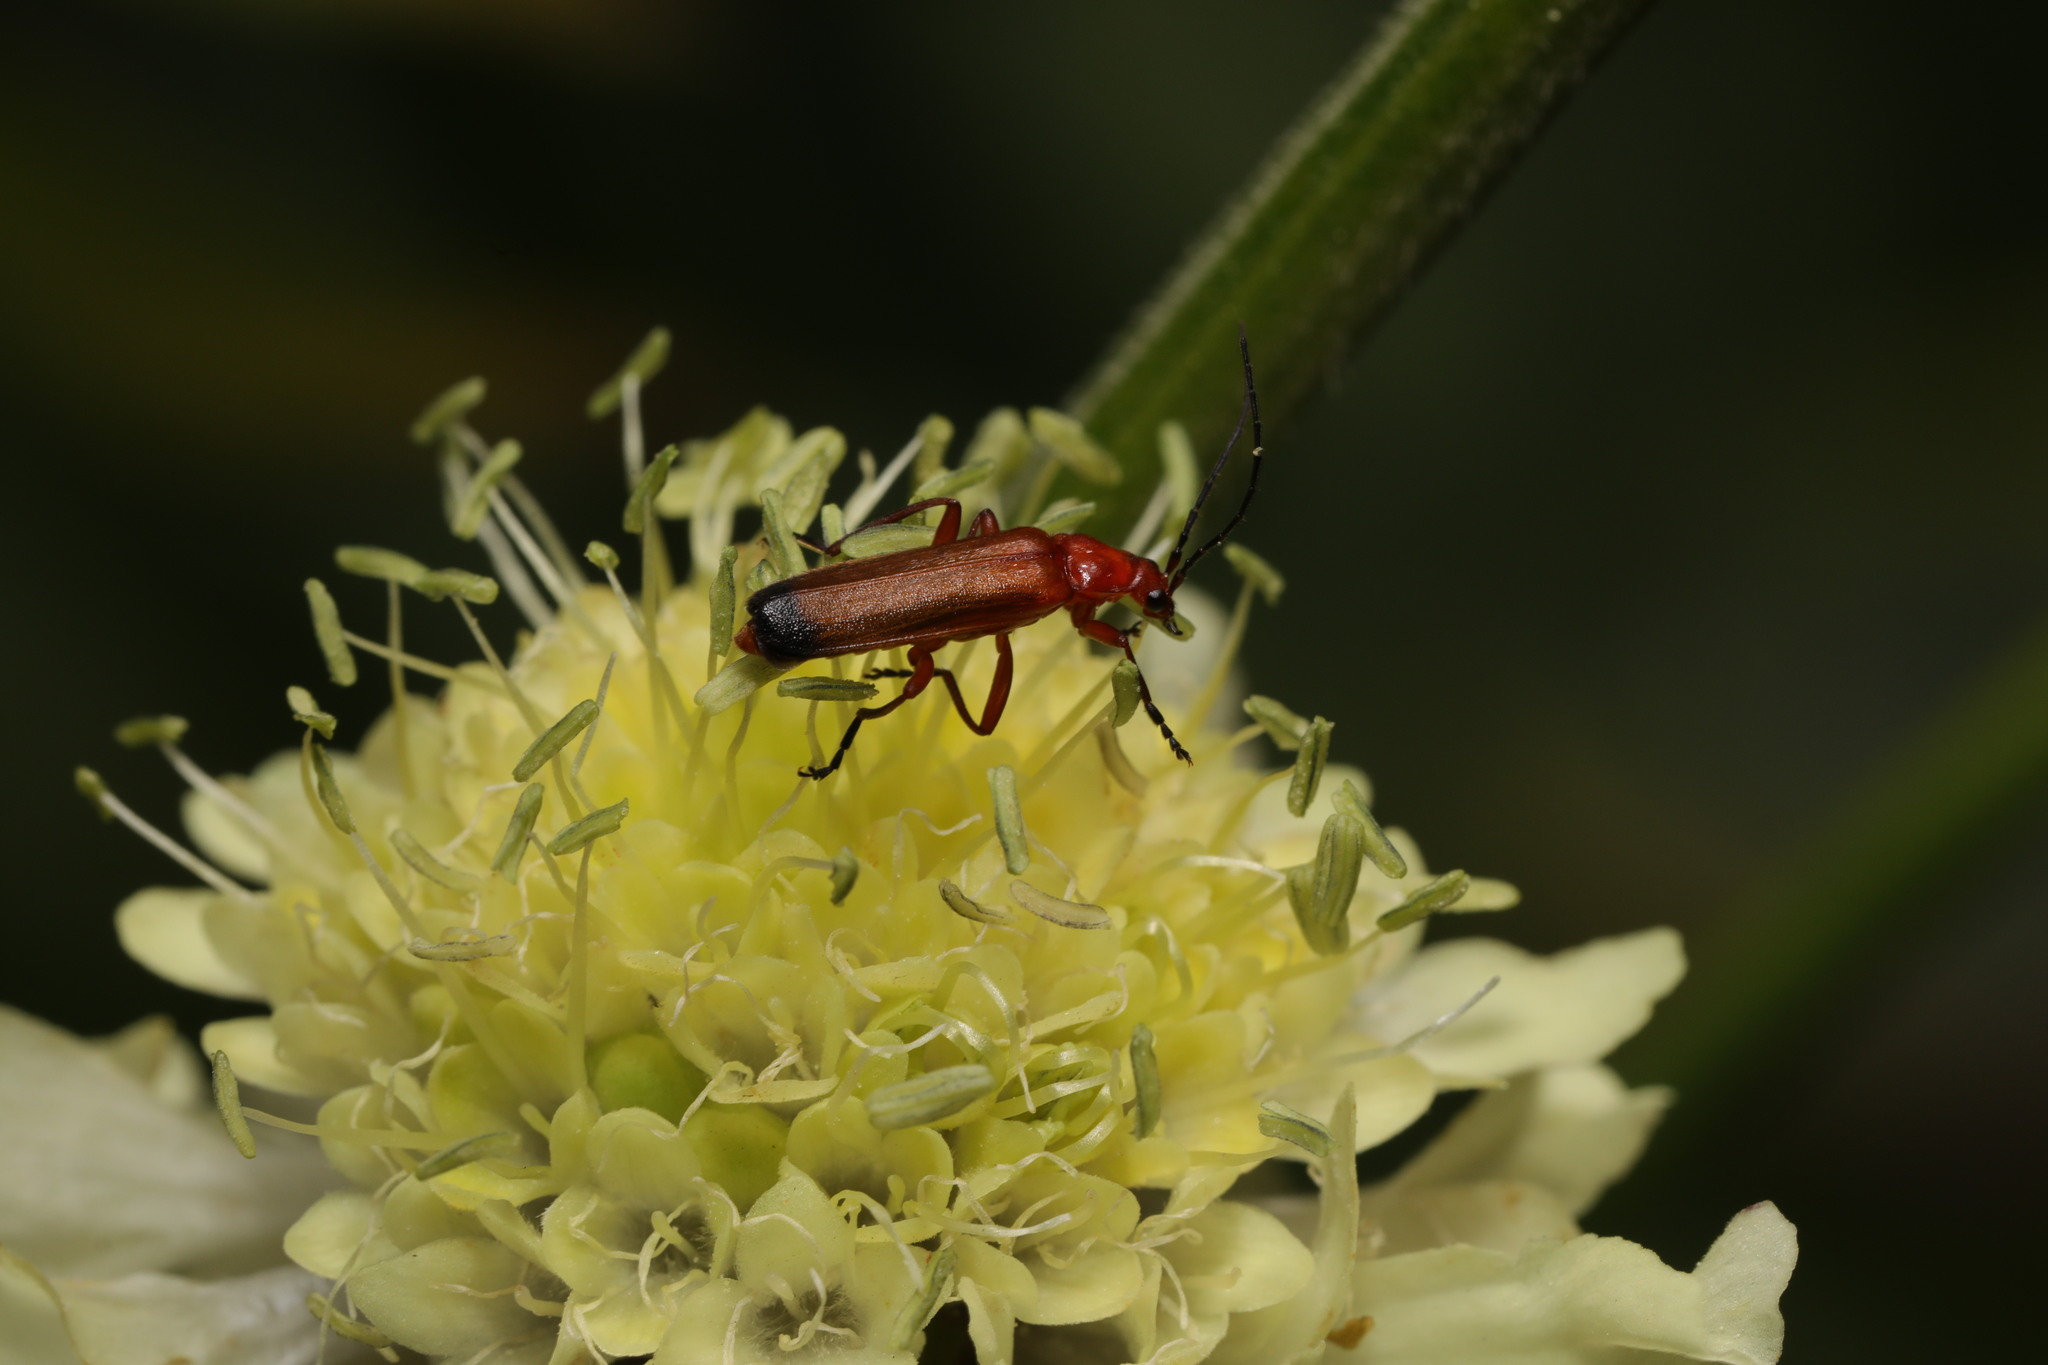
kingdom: Animalia
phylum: Arthropoda
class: Insecta
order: Coleoptera
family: Cantharidae
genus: Rhagonycha
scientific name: Rhagonycha fulva
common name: Common red soldier beetle
